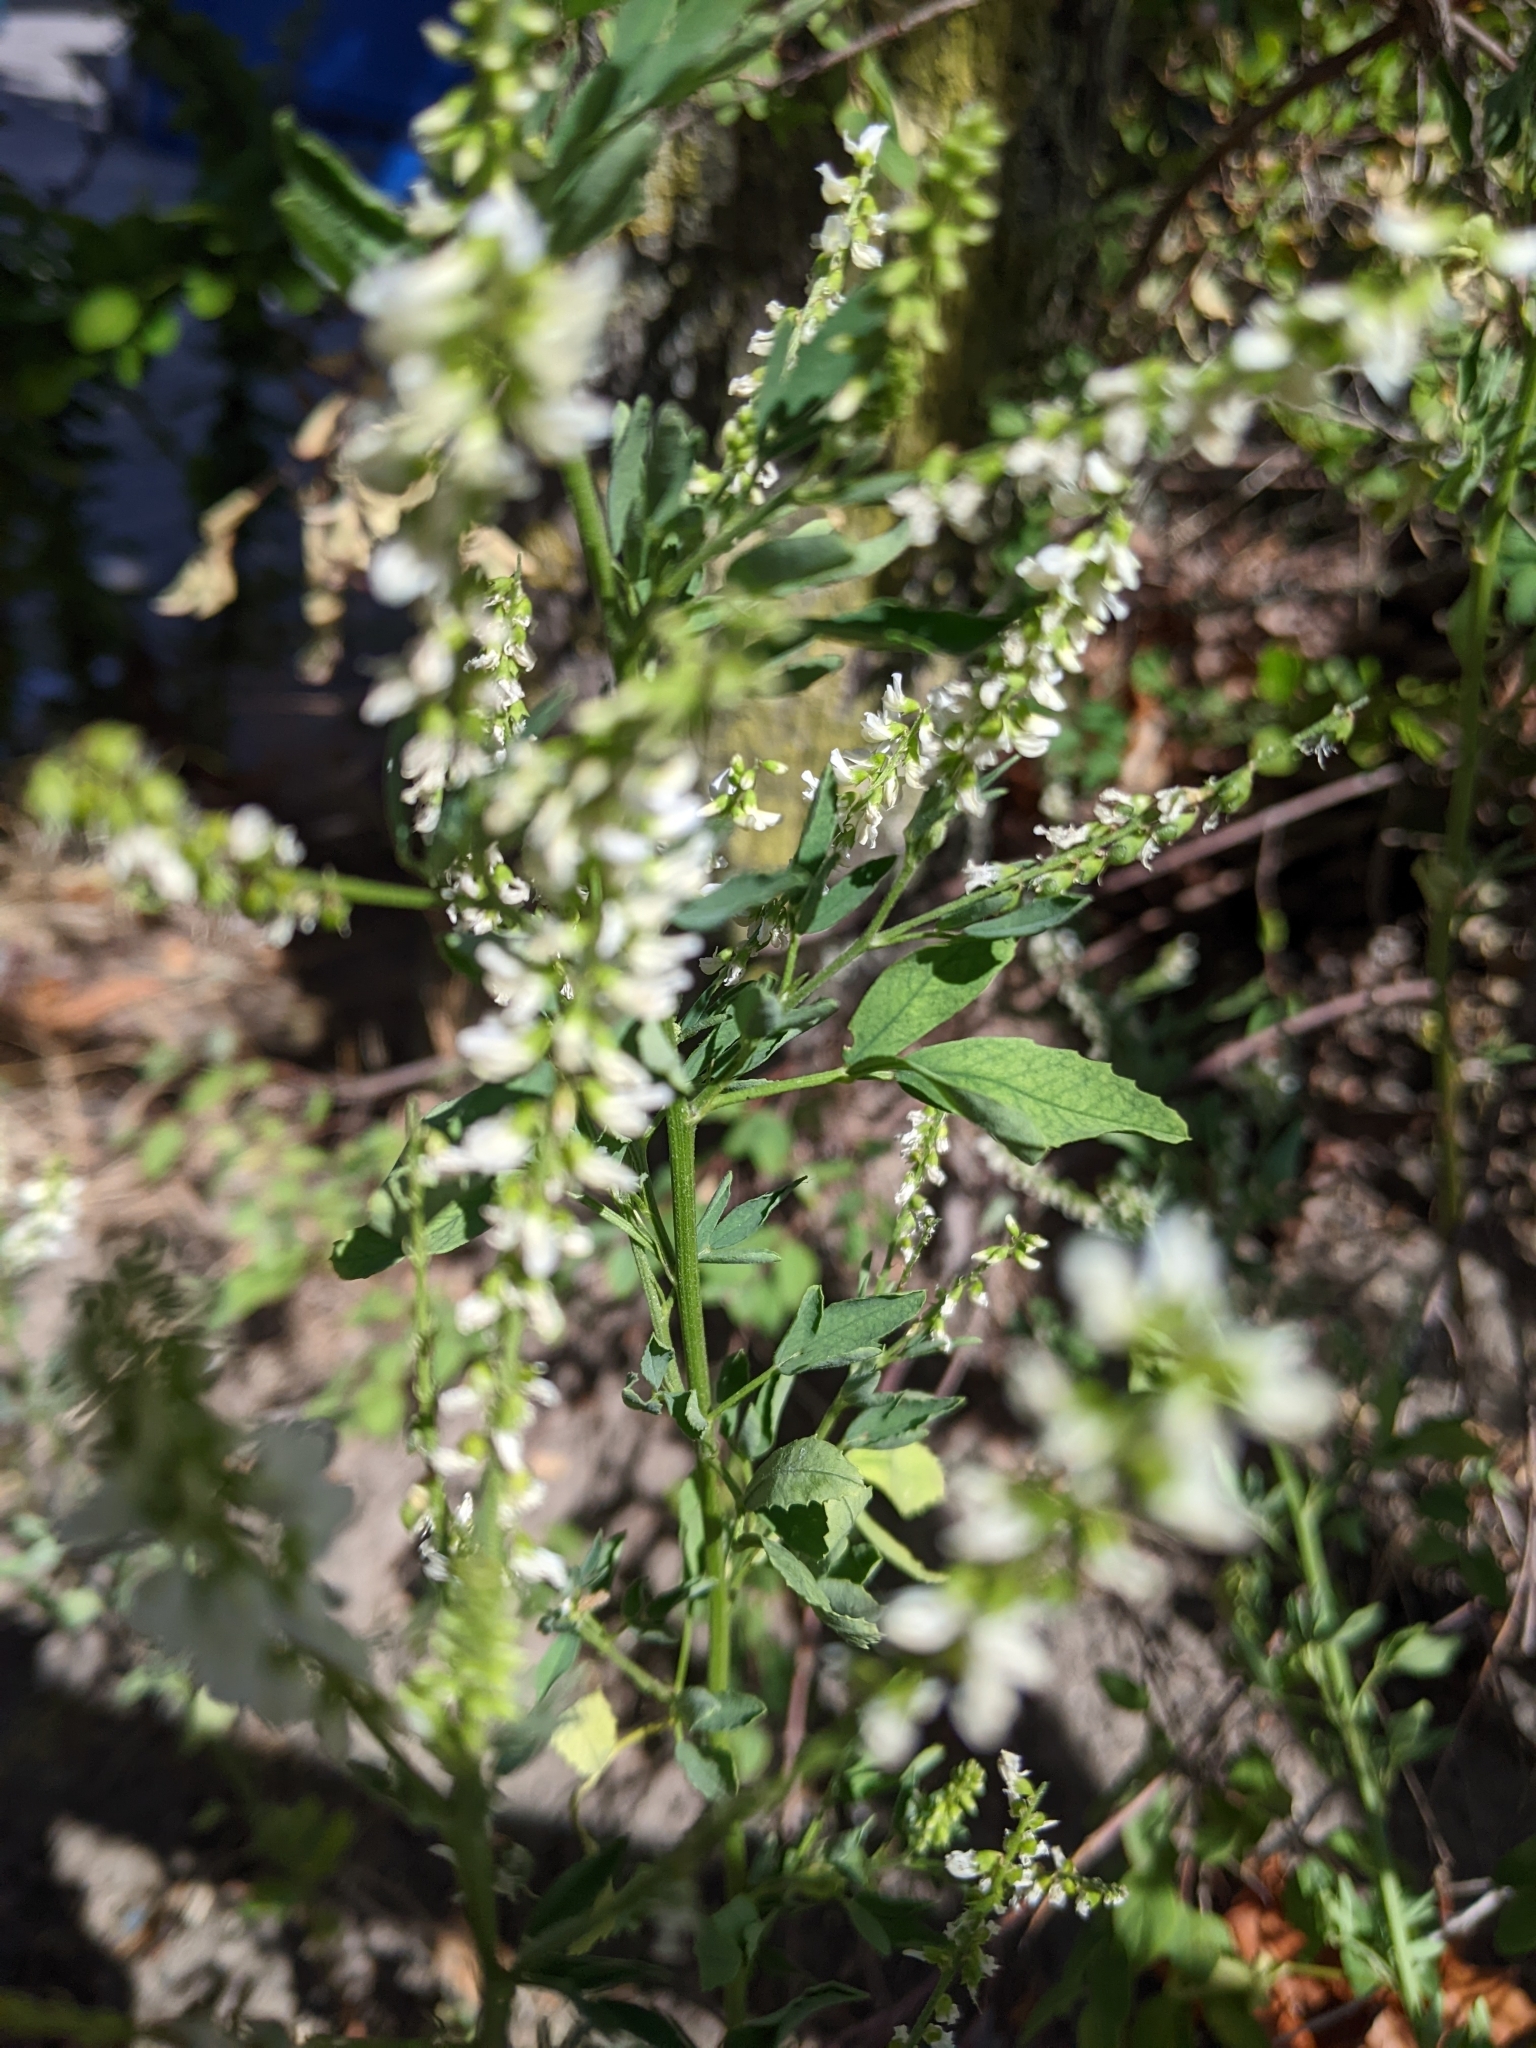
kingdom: Plantae
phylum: Tracheophyta
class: Magnoliopsida
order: Fabales
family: Fabaceae
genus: Melilotus
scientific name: Melilotus albus
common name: White melilot
